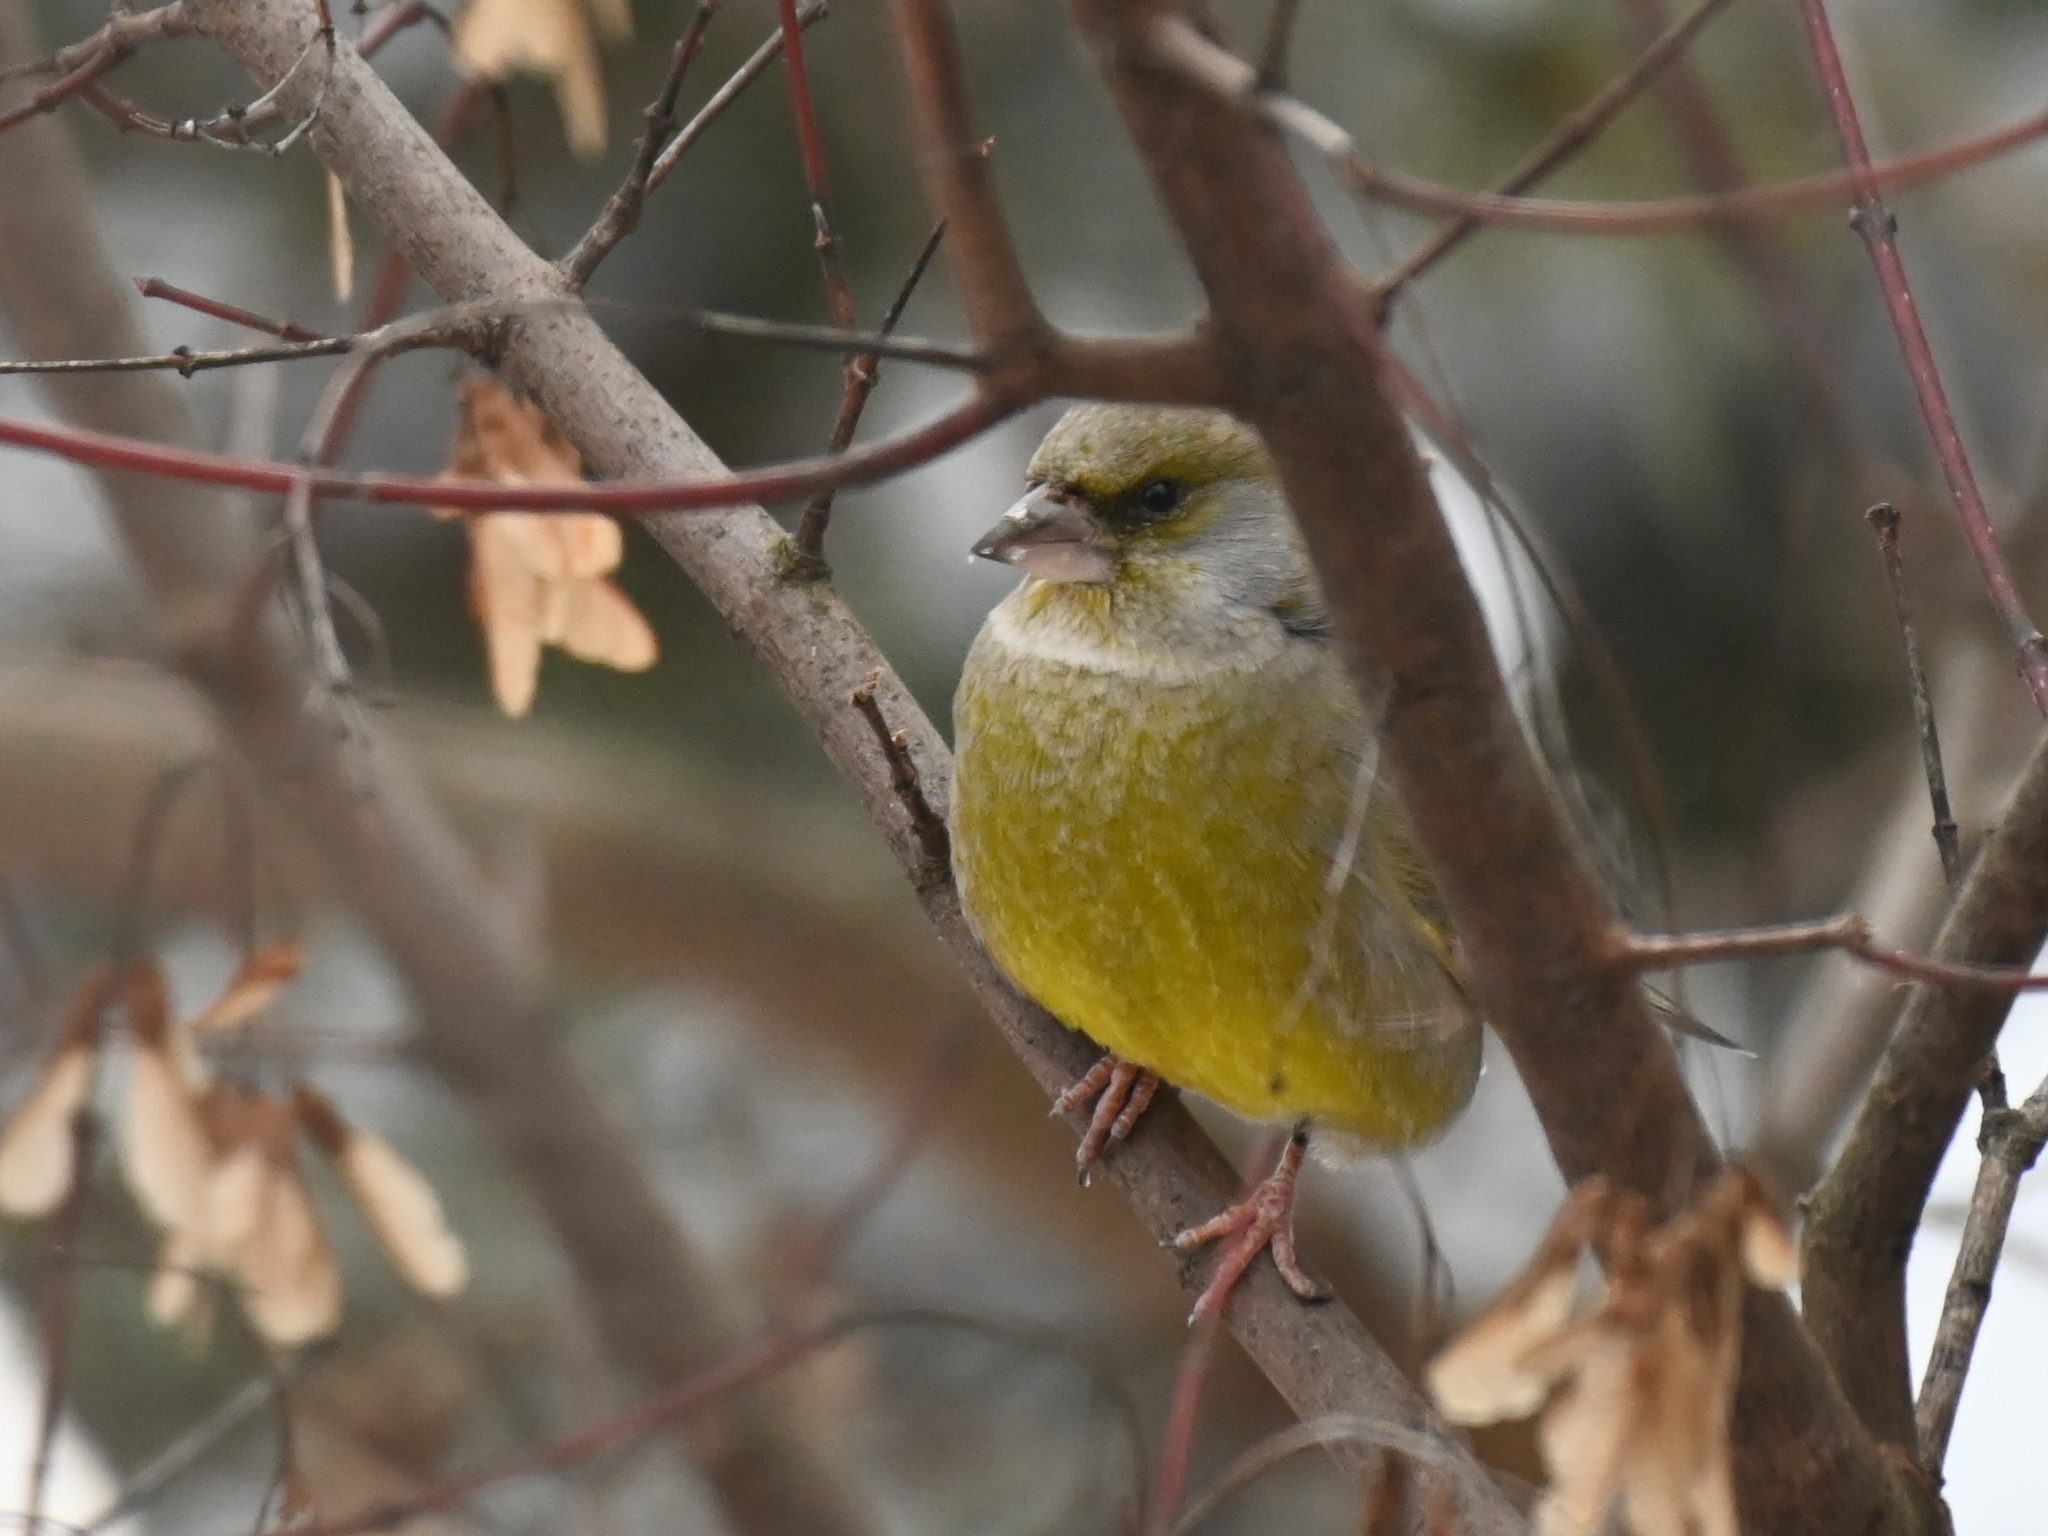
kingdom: Plantae
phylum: Tracheophyta
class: Liliopsida
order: Poales
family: Poaceae
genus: Chloris
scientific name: Chloris chloris
